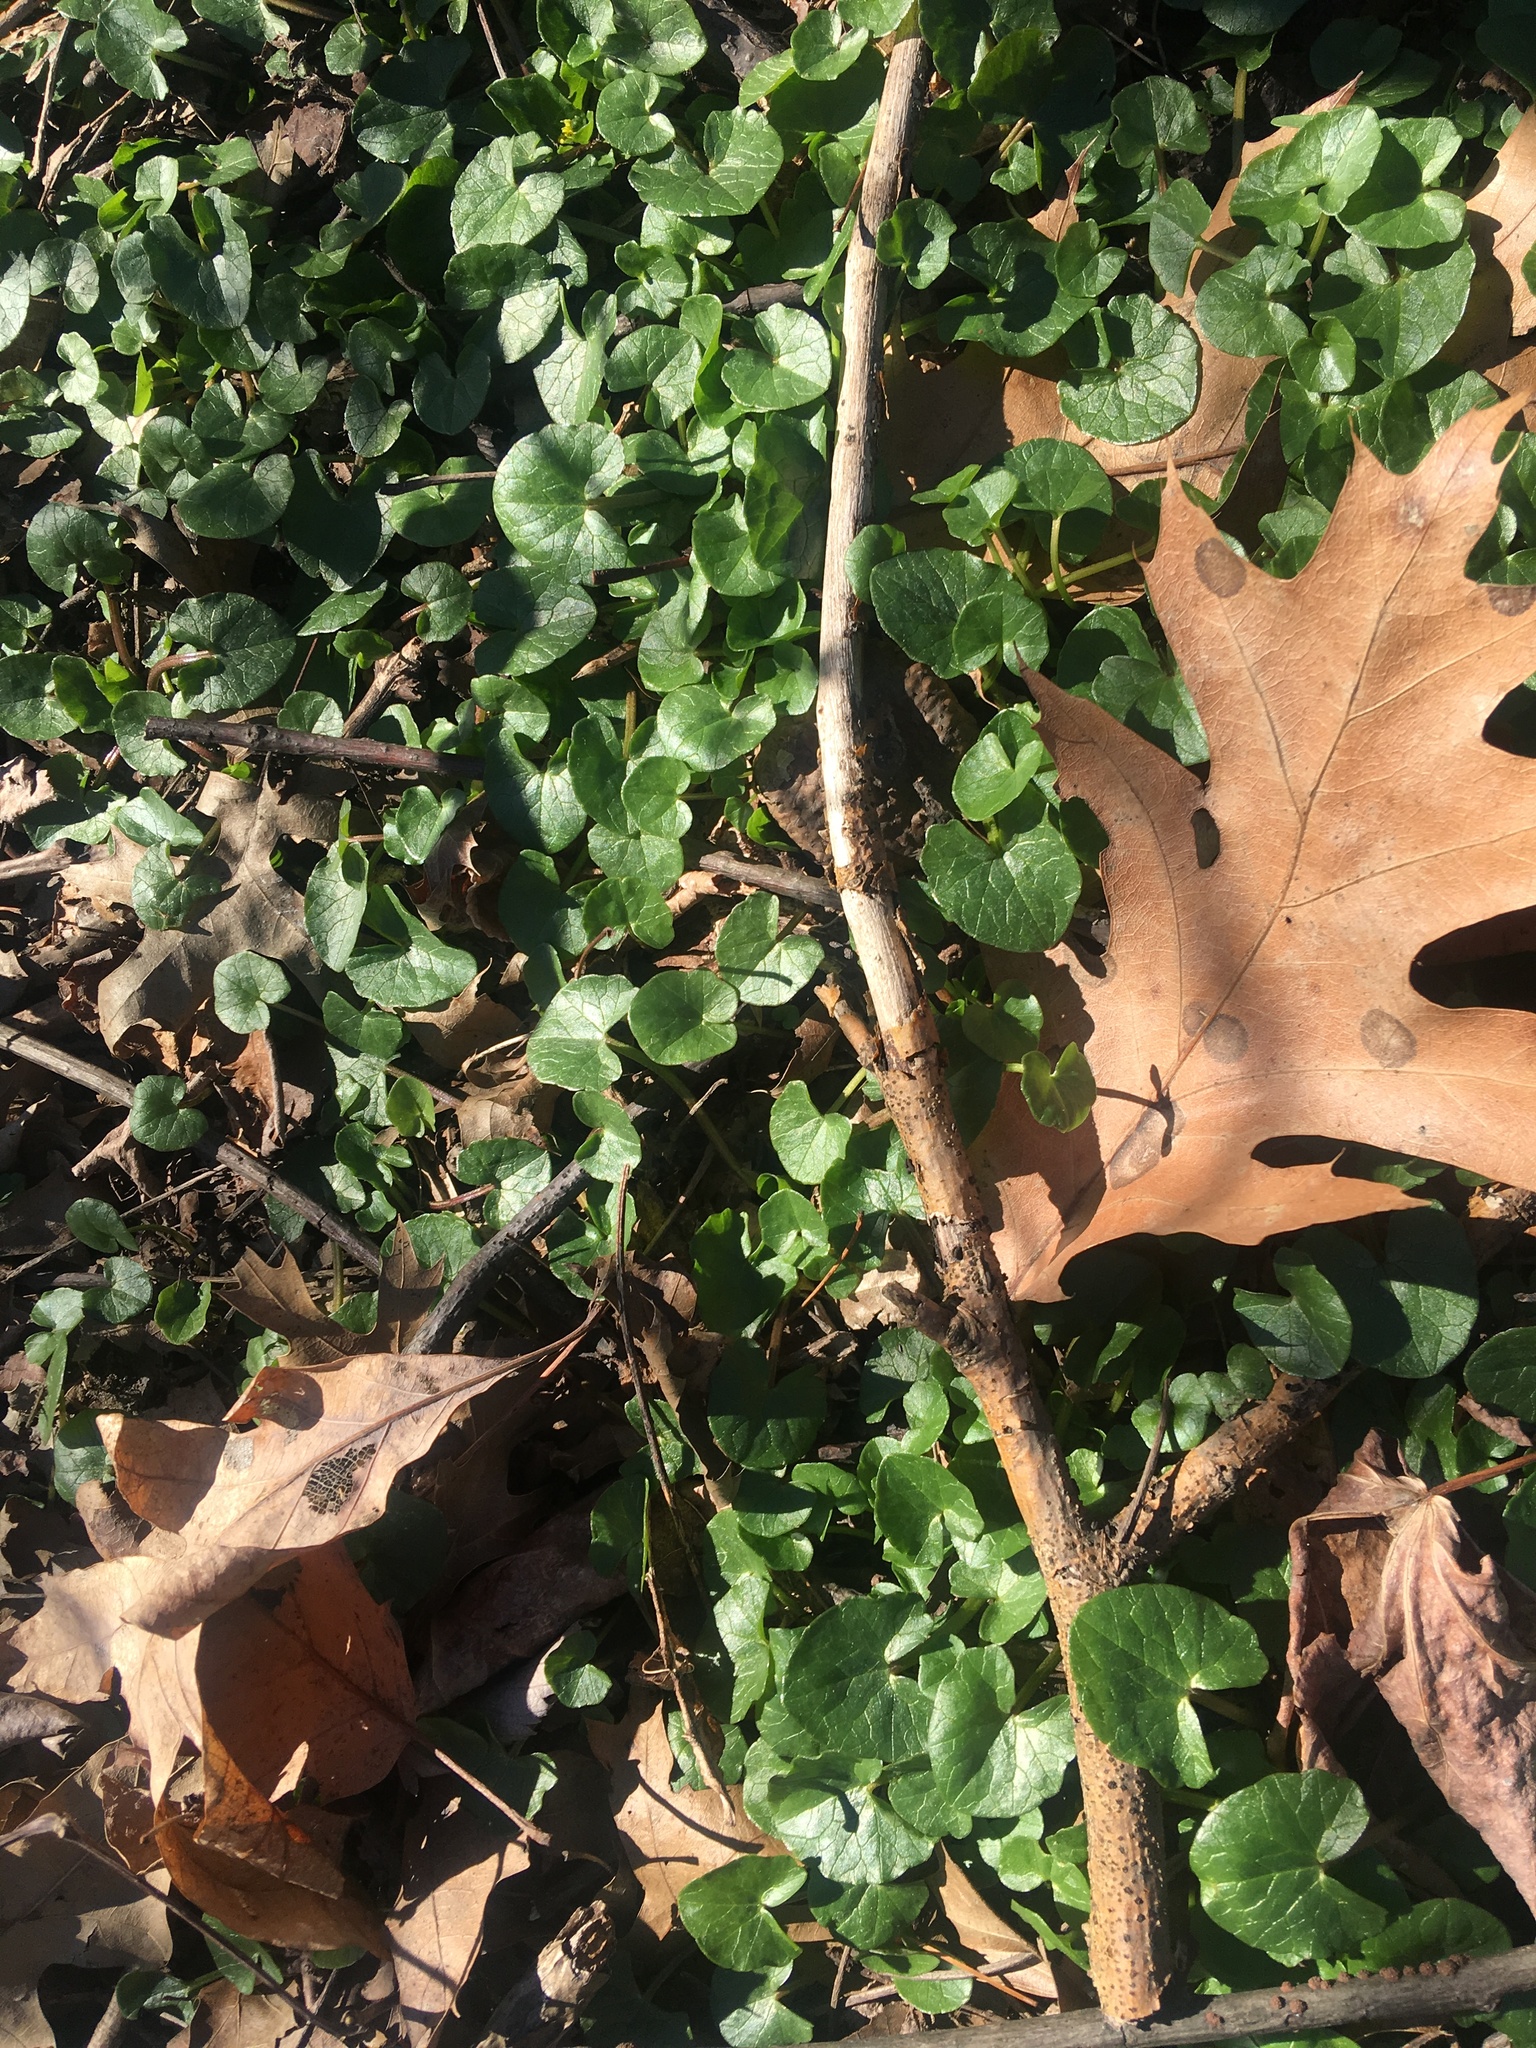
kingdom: Plantae
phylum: Tracheophyta
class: Magnoliopsida
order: Ranunculales
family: Ranunculaceae
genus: Ficaria
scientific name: Ficaria verna
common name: Lesser celandine
